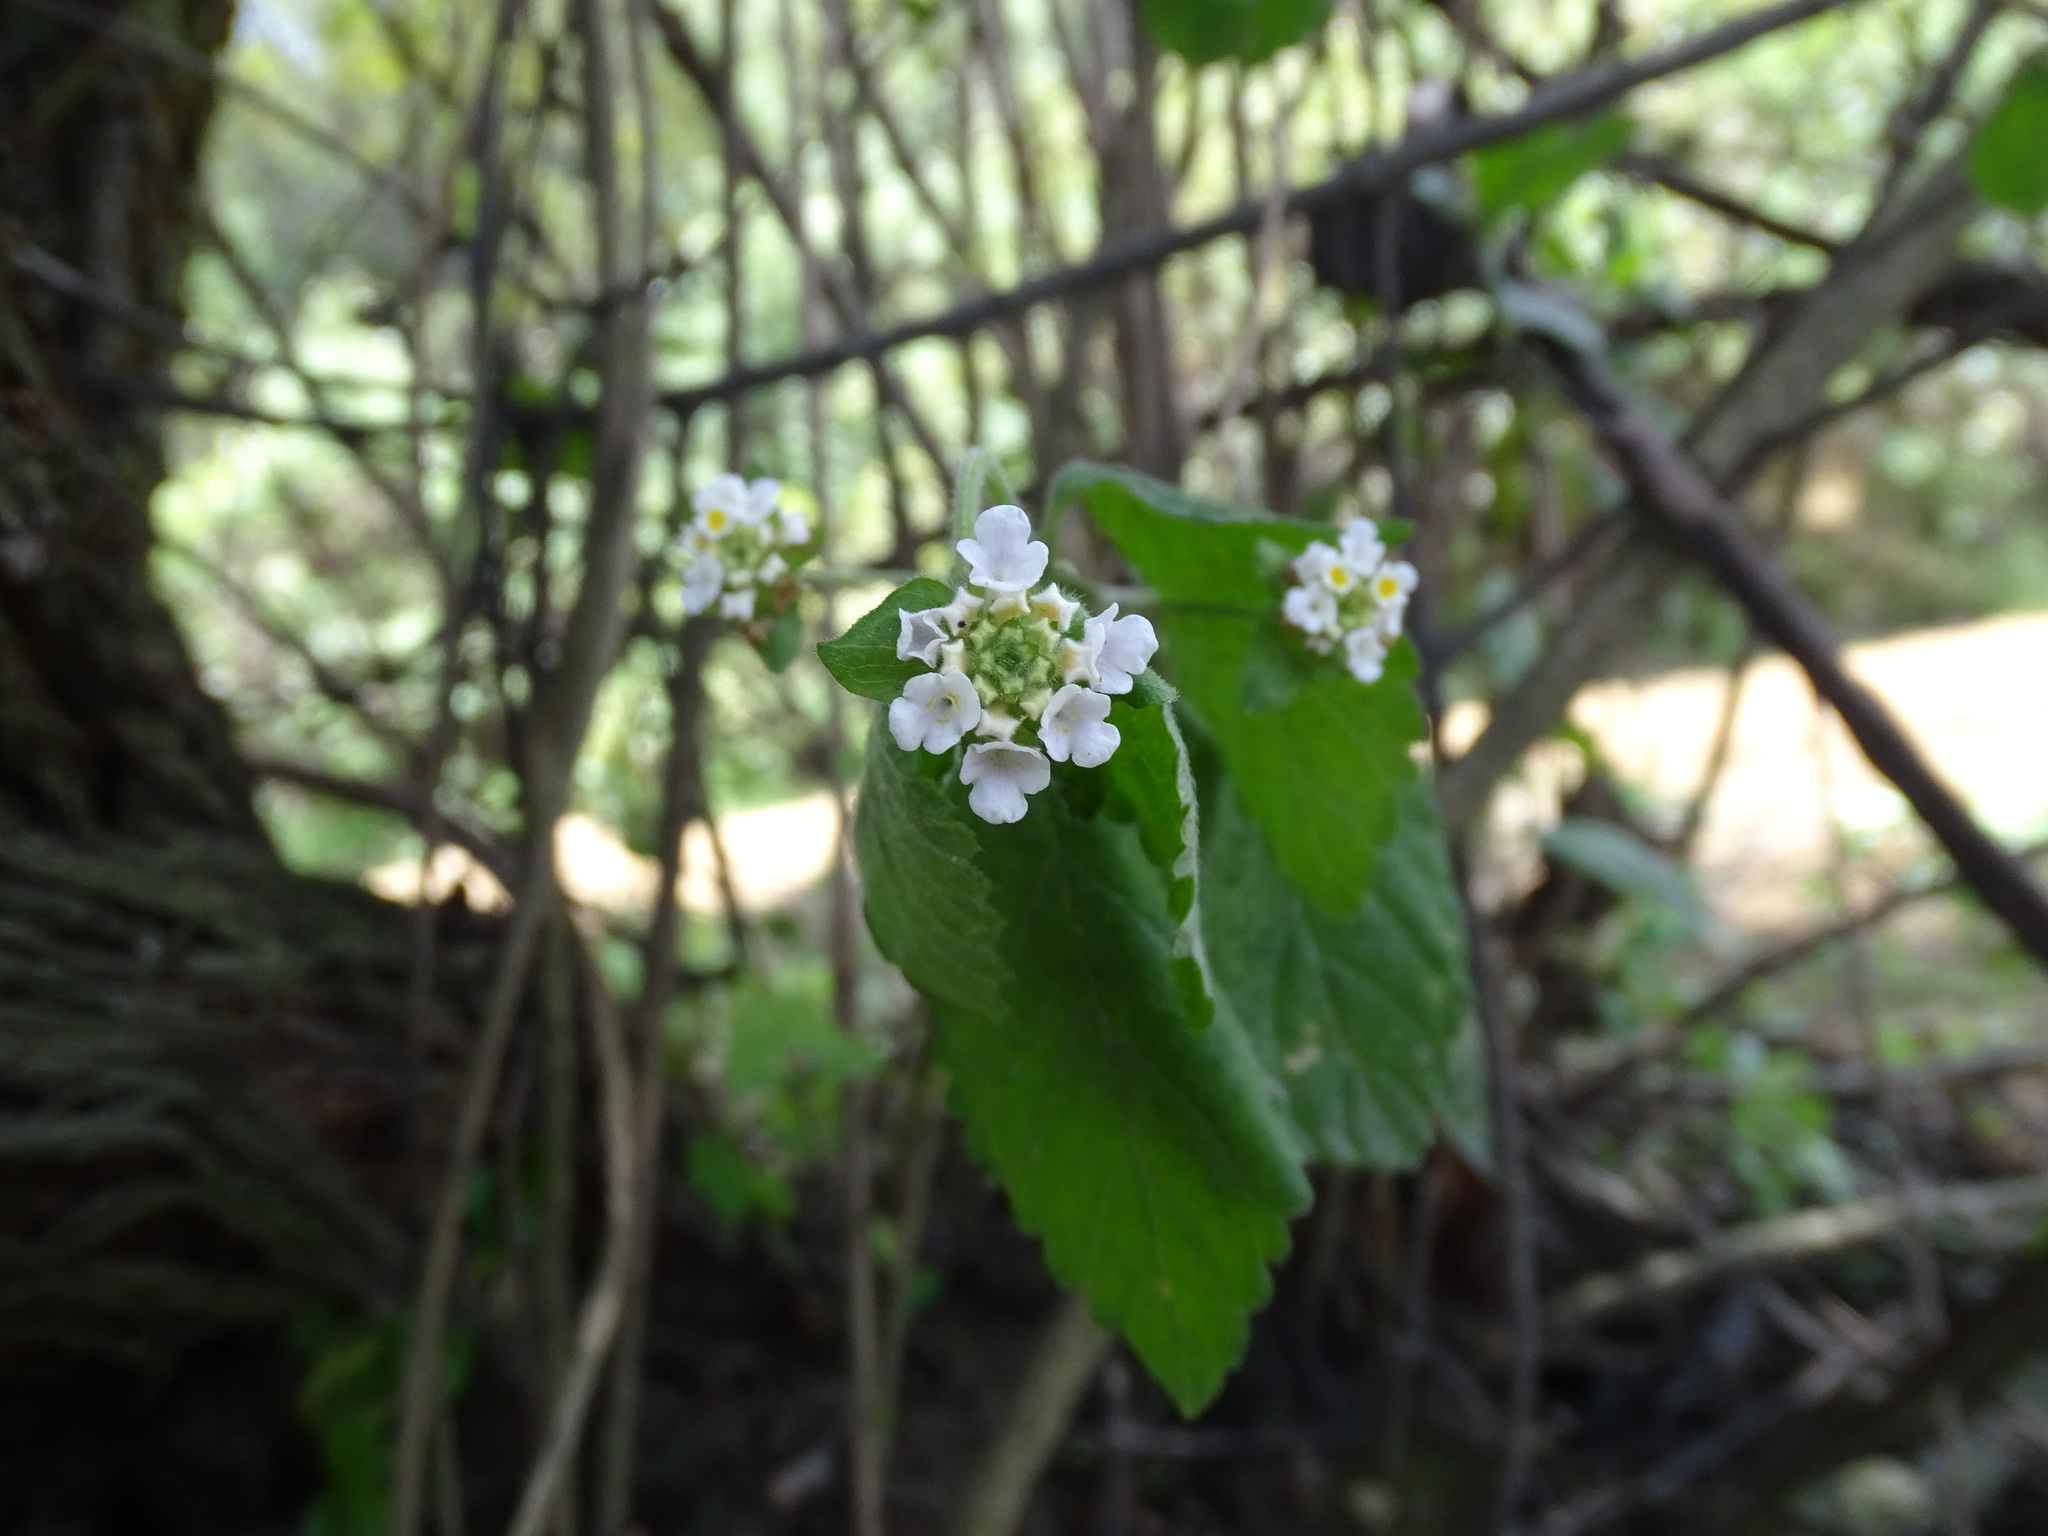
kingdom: Plantae
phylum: Tracheophyta
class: Magnoliopsida
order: Lamiales
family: Verbenaceae
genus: Lantana
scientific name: Lantana hirta
